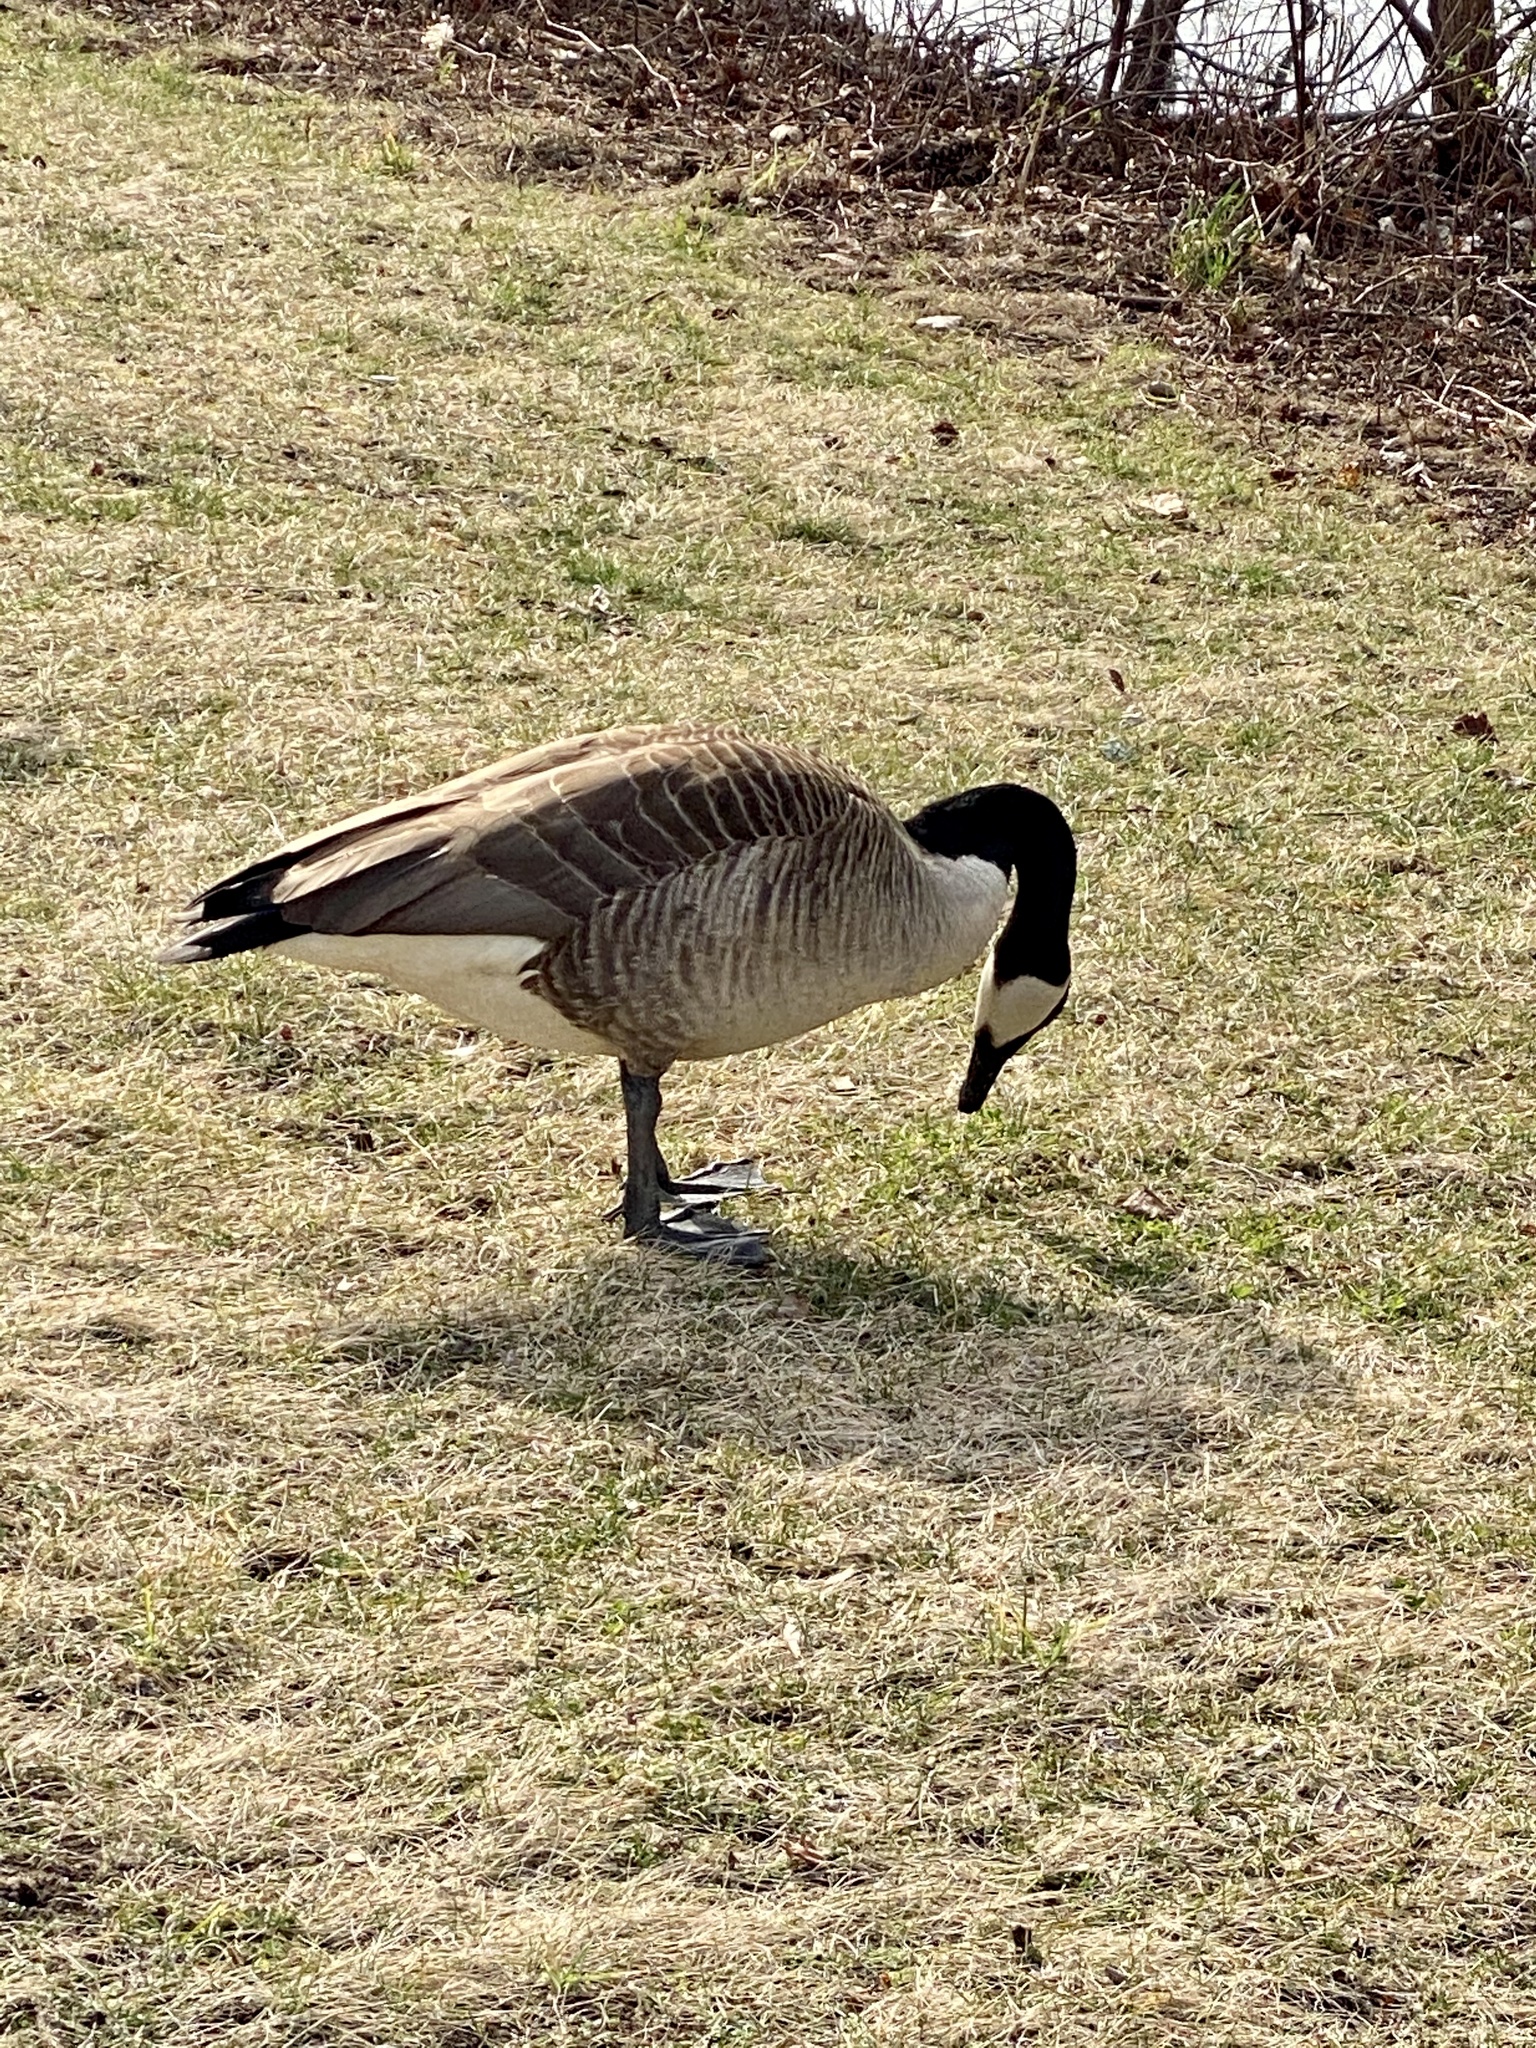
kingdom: Animalia
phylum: Chordata
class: Aves
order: Anseriformes
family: Anatidae
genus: Branta
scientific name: Branta canadensis
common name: Canada goose
